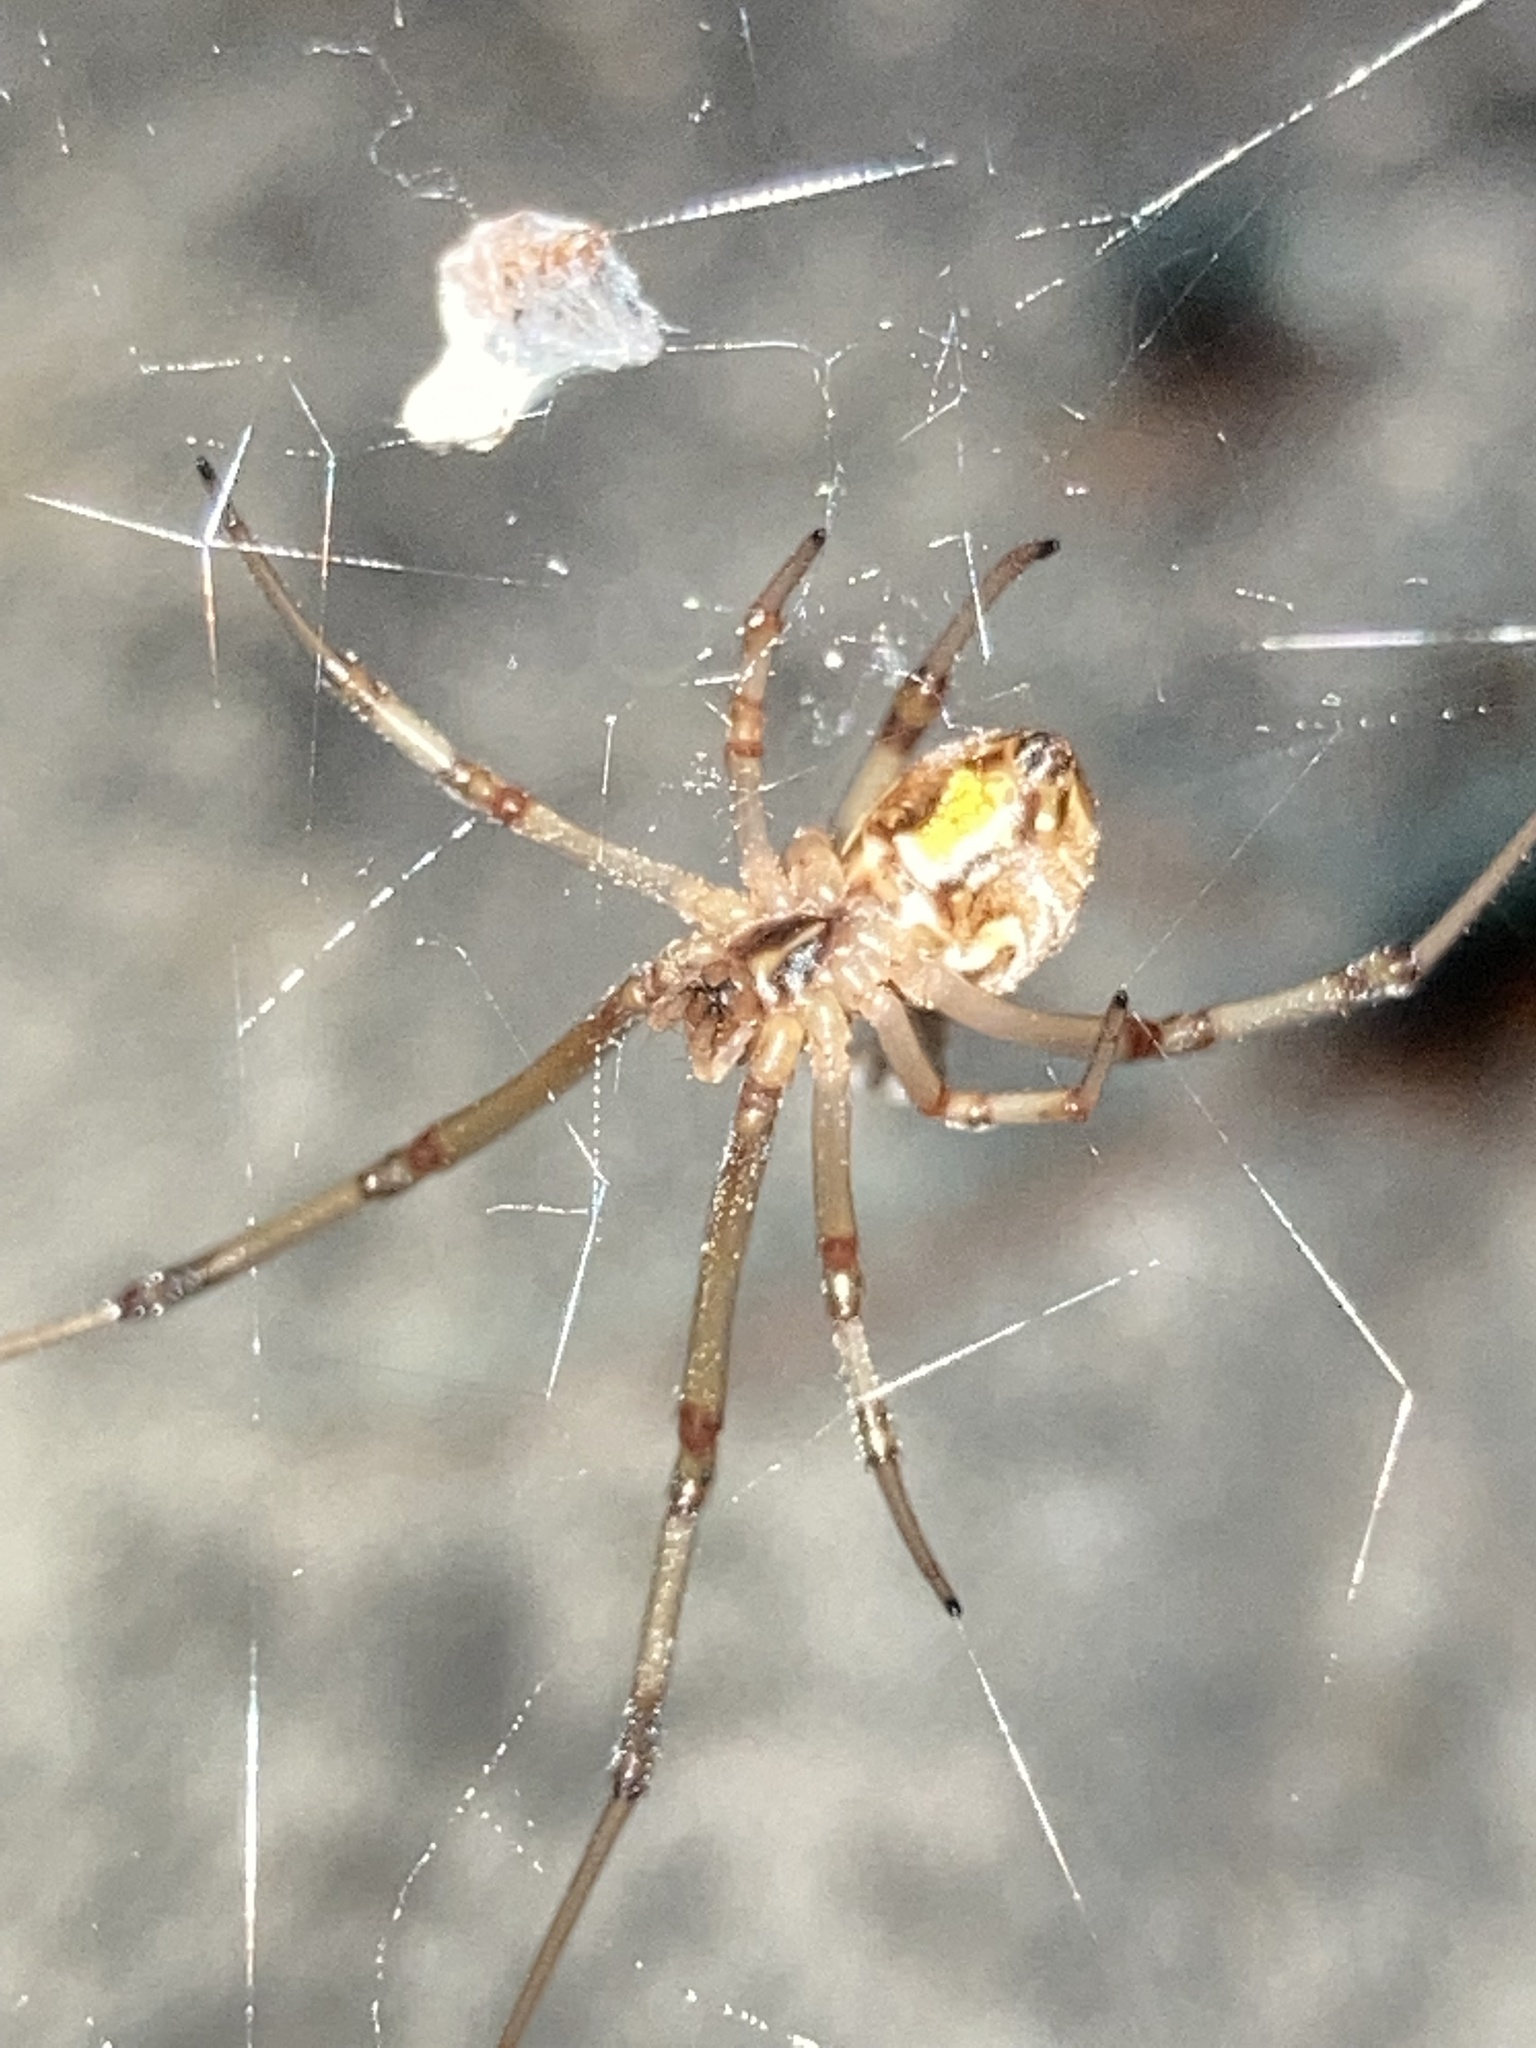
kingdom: Animalia
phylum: Arthropoda
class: Arachnida
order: Araneae
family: Theridiidae
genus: Latrodectus
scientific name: Latrodectus geometricus
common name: Brown widow spider
